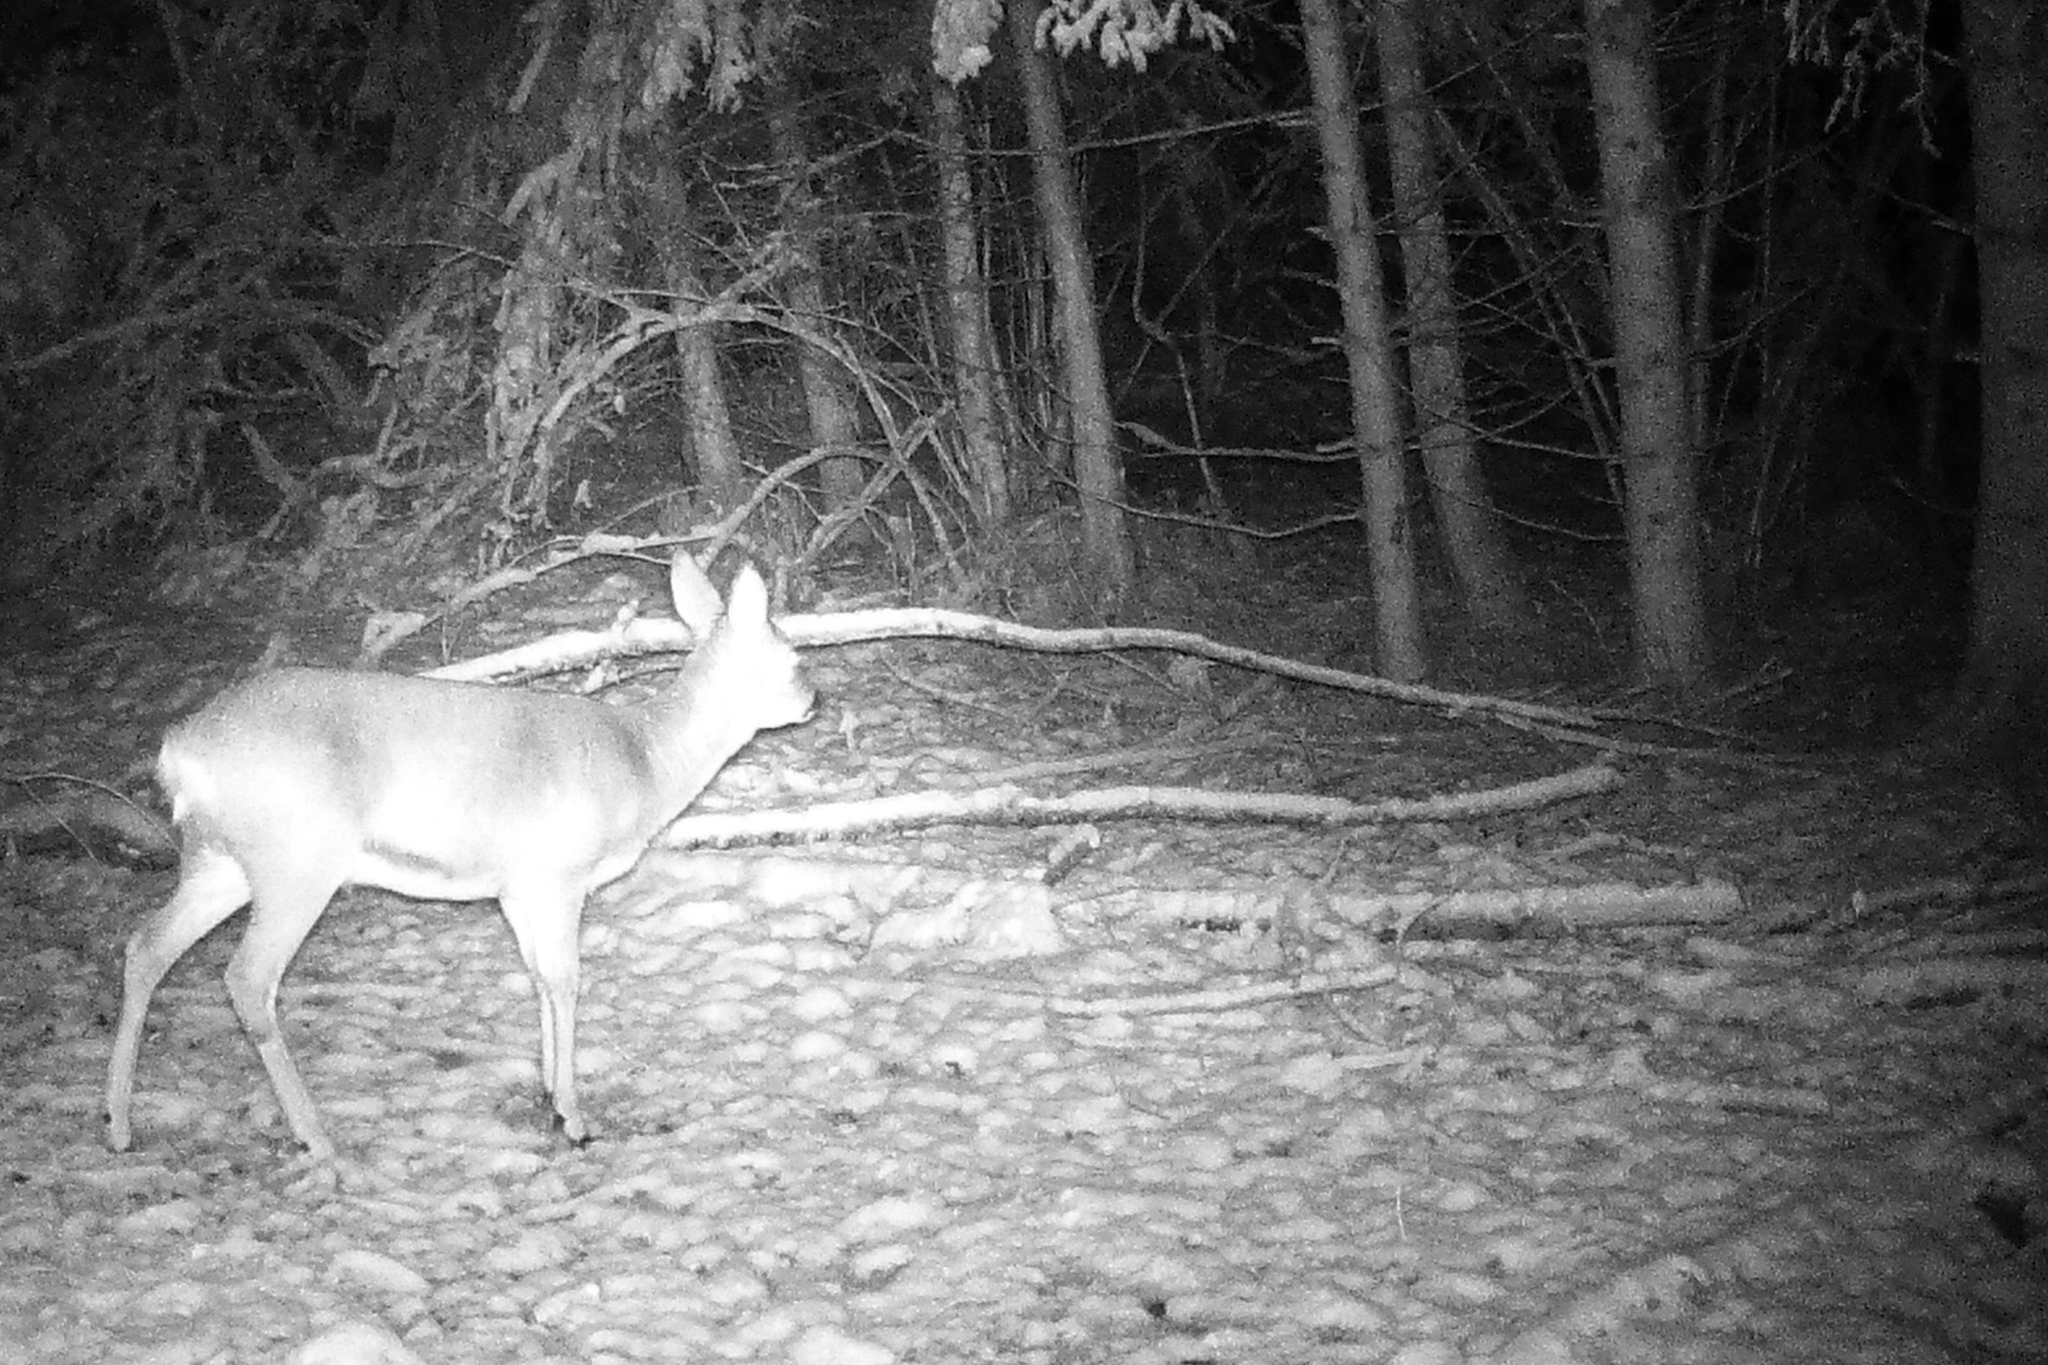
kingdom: Animalia
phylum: Chordata
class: Mammalia
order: Artiodactyla
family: Cervidae
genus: Capreolus
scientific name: Capreolus capreolus
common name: Western roe deer
